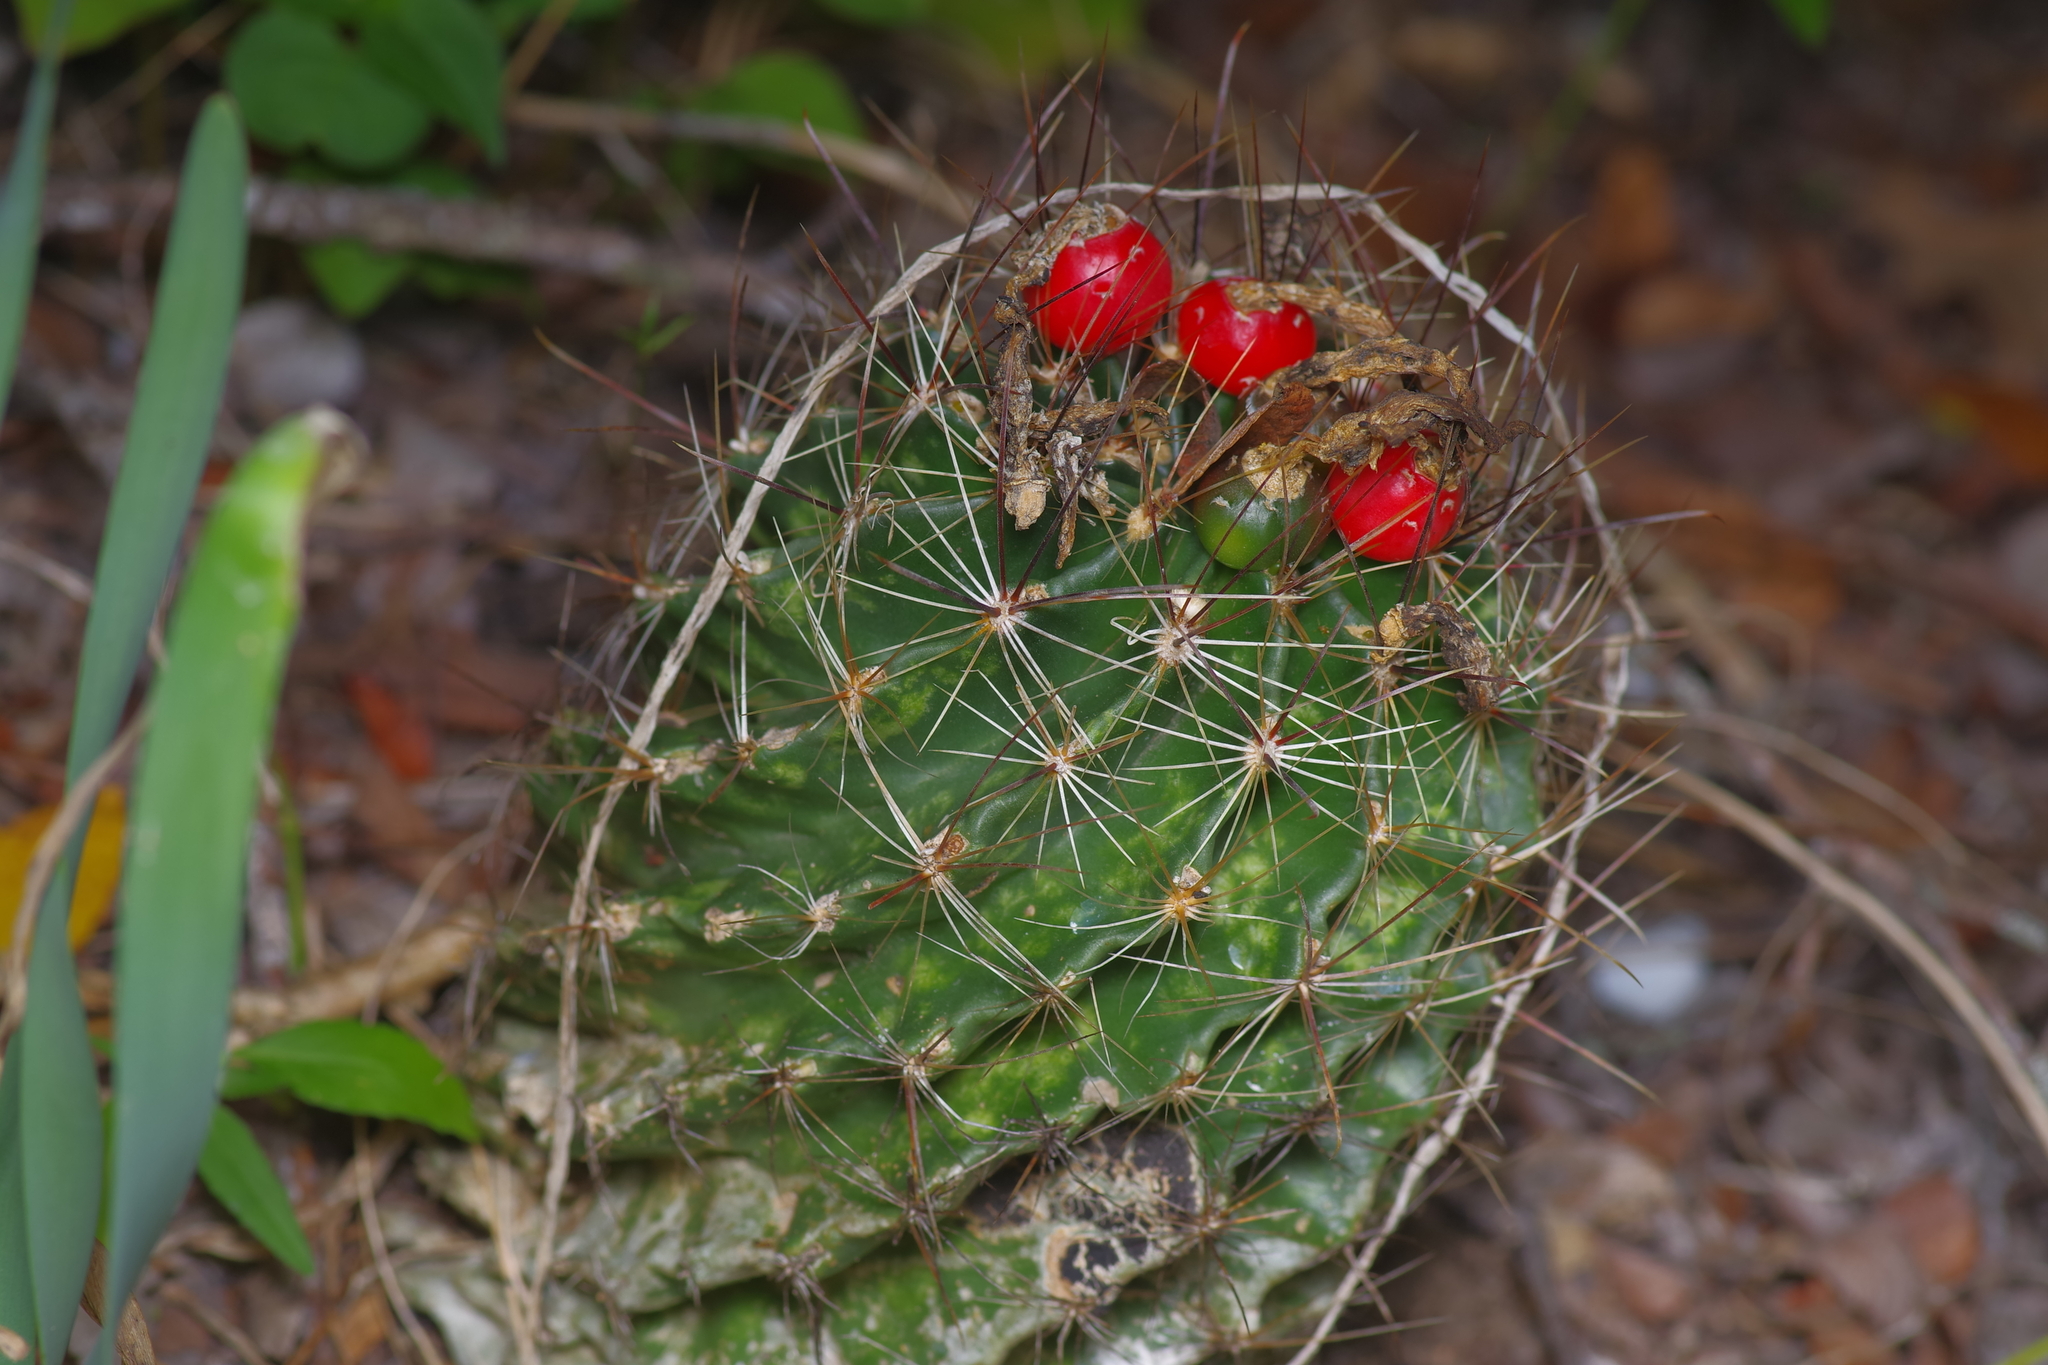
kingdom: Plantae
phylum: Tracheophyta
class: Magnoliopsida
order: Caryophyllales
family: Cactaceae
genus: Thelocactus
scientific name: Thelocactus setispinus
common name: Miniature barrel cactus
